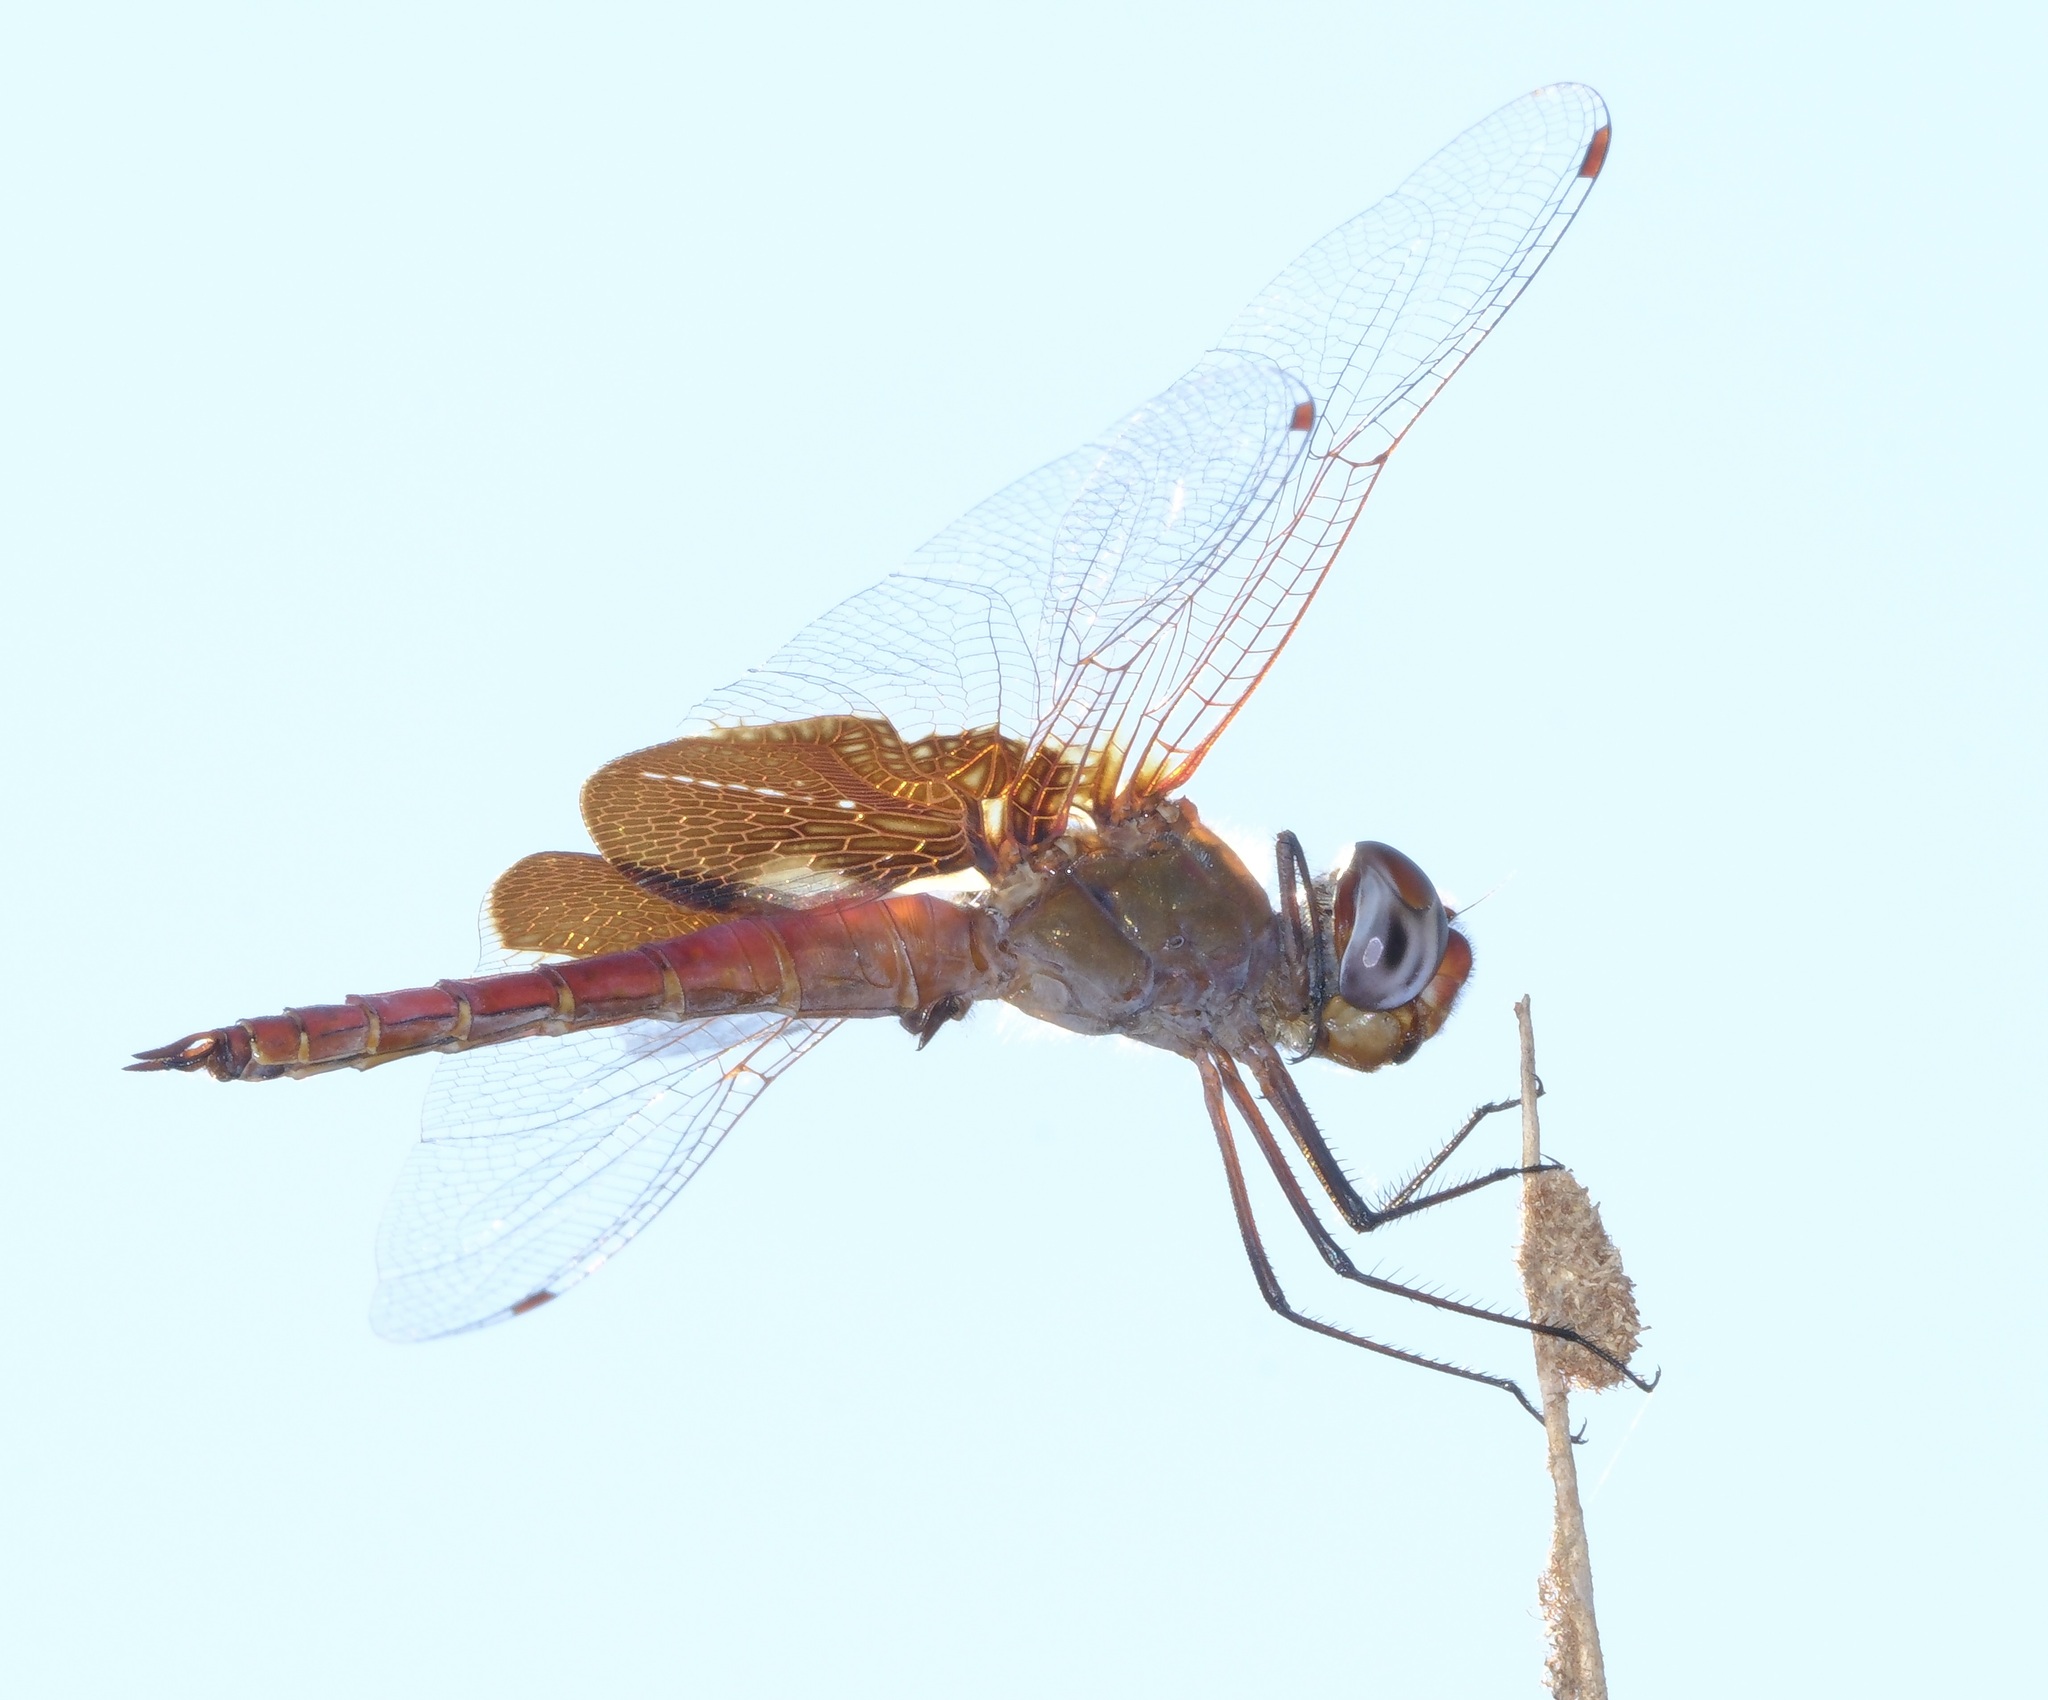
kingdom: Animalia
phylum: Arthropoda
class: Insecta
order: Odonata
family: Libellulidae
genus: Tramea
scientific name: Tramea onusta
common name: Red saddlebags
